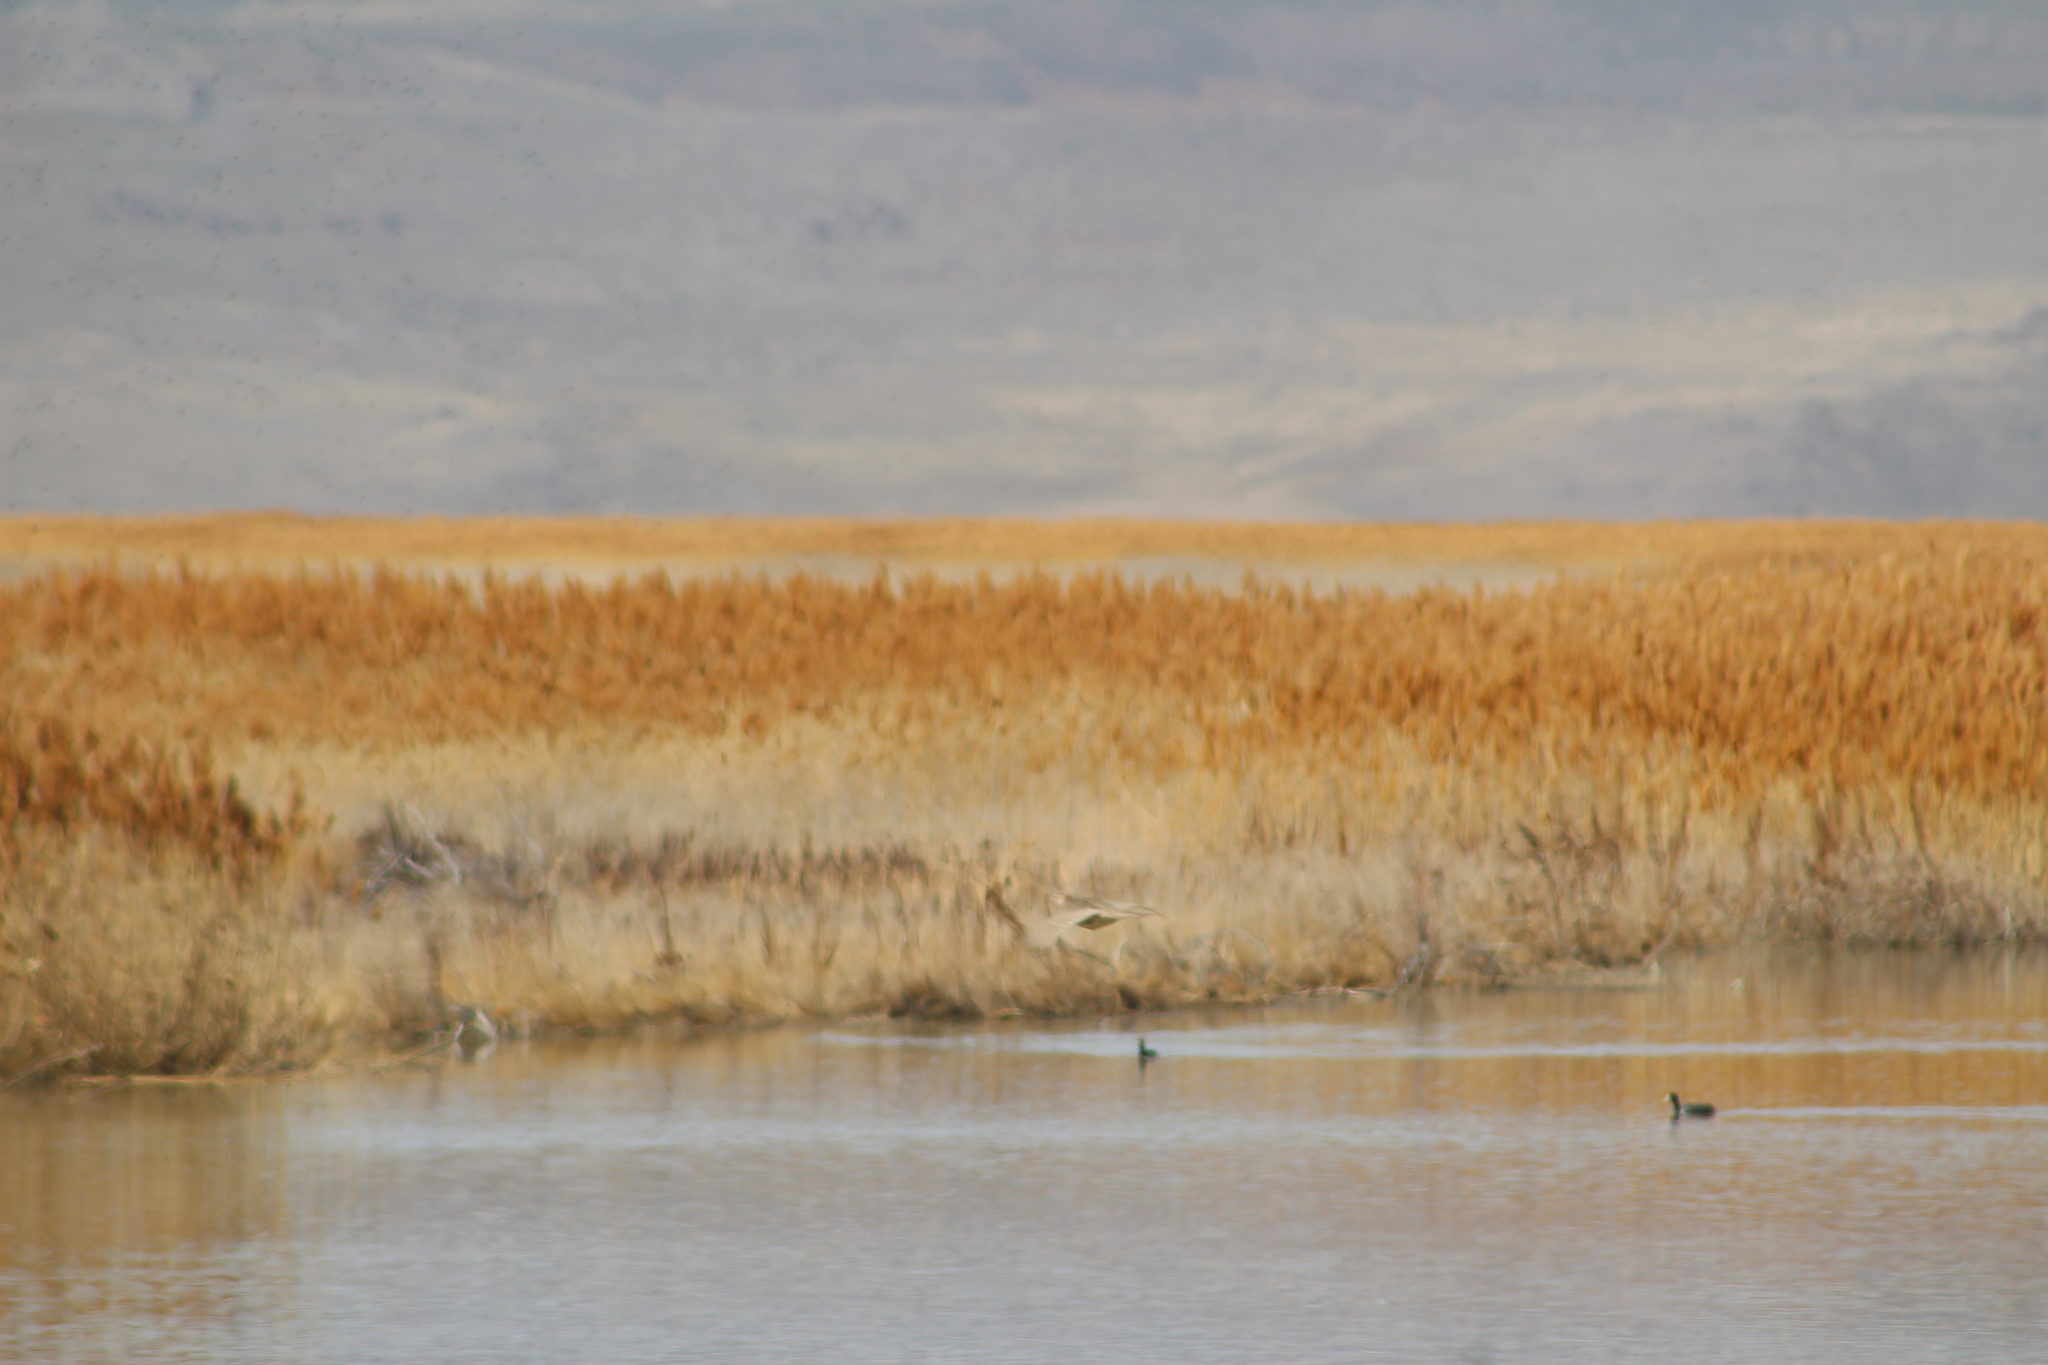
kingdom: Animalia
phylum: Chordata
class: Aves
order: Galliformes
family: Phasianidae
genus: Phasianus
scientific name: Phasianus colchicus
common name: Common pheasant
